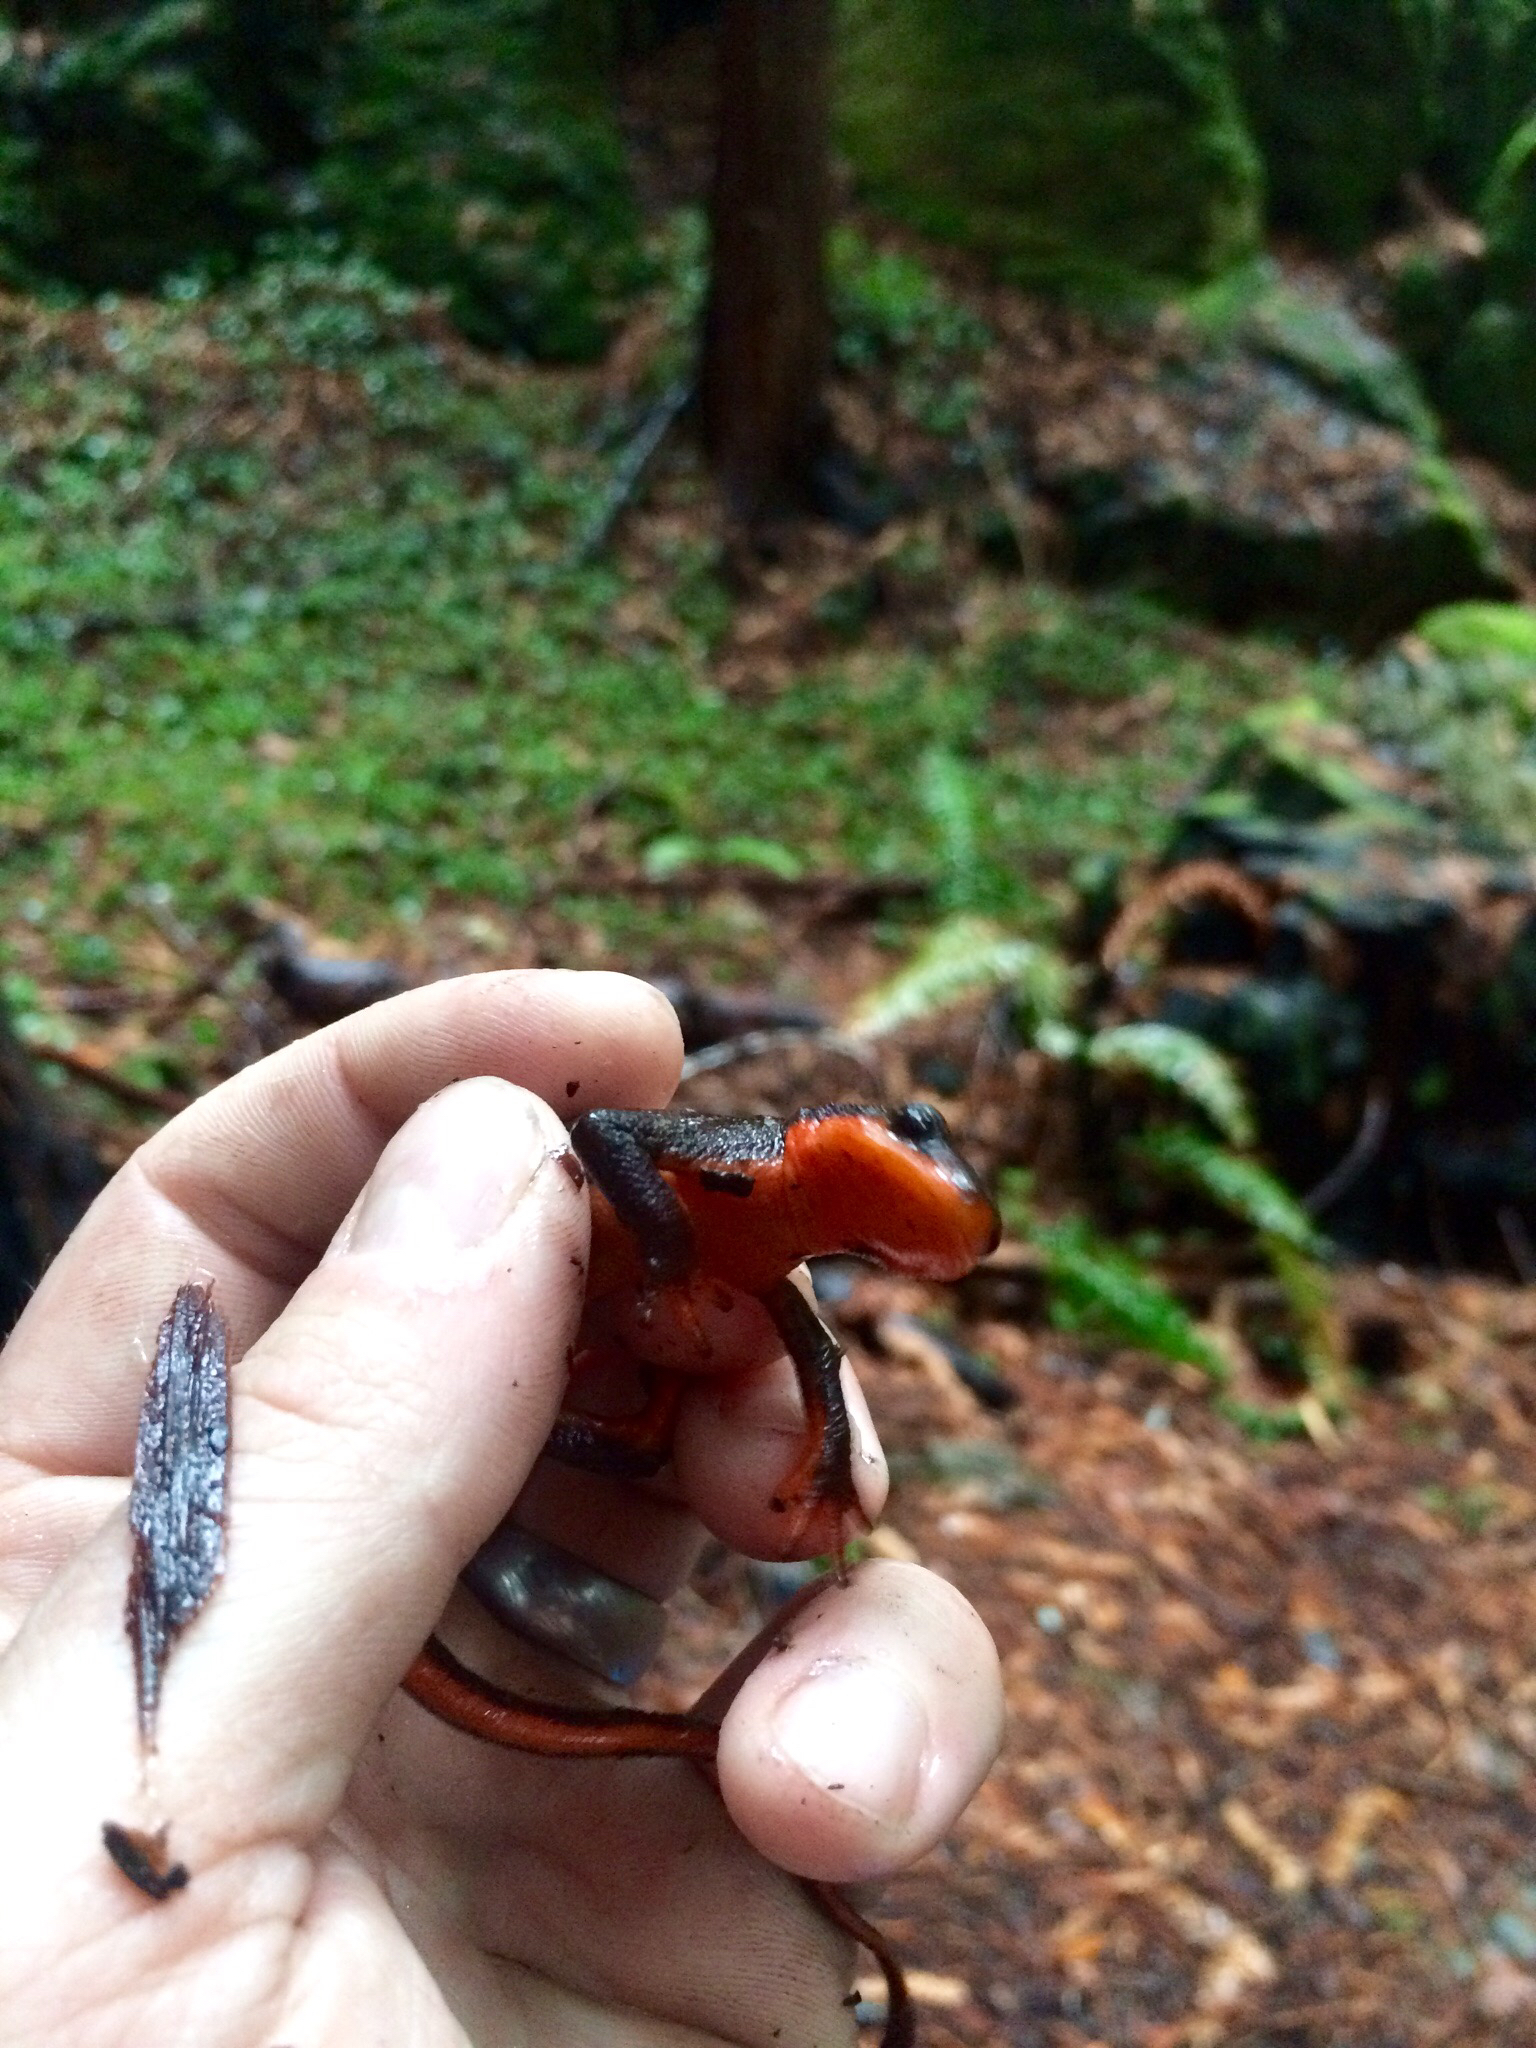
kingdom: Animalia
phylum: Chordata
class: Amphibia
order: Caudata
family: Salamandridae
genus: Taricha
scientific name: Taricha rivularis
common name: Red-bellied newt
